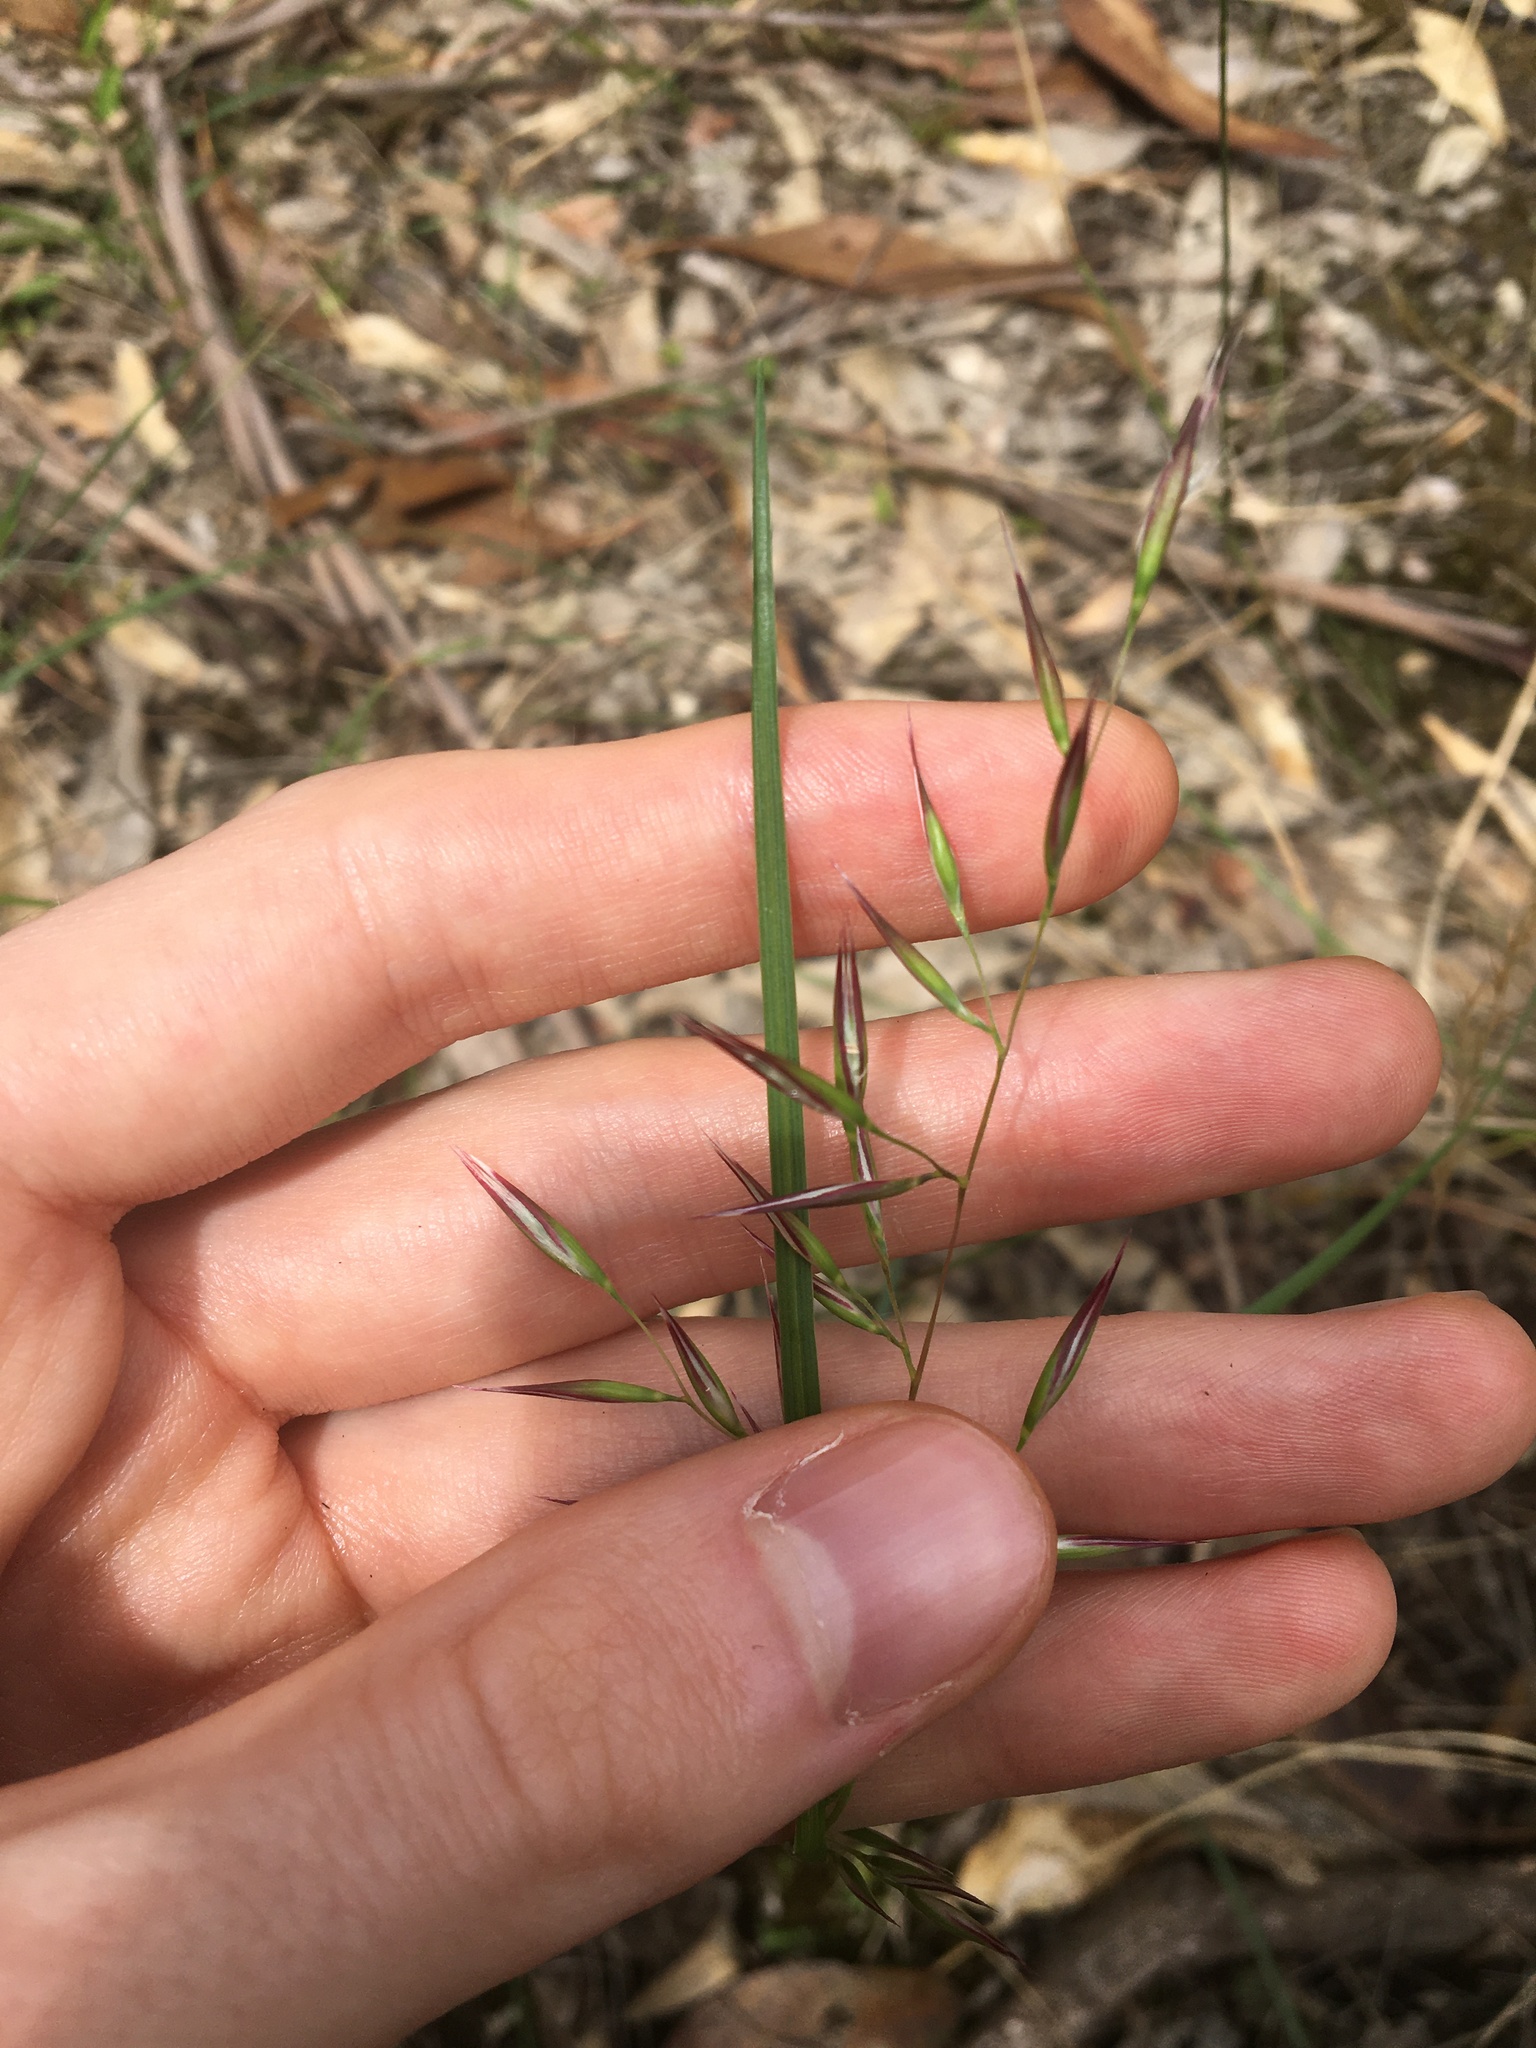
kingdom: Plantae
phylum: Tracheophyta
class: Liliopsida
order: Poales
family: Poaceae
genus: Rytidosperma
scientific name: Rytidosperma fulvum
